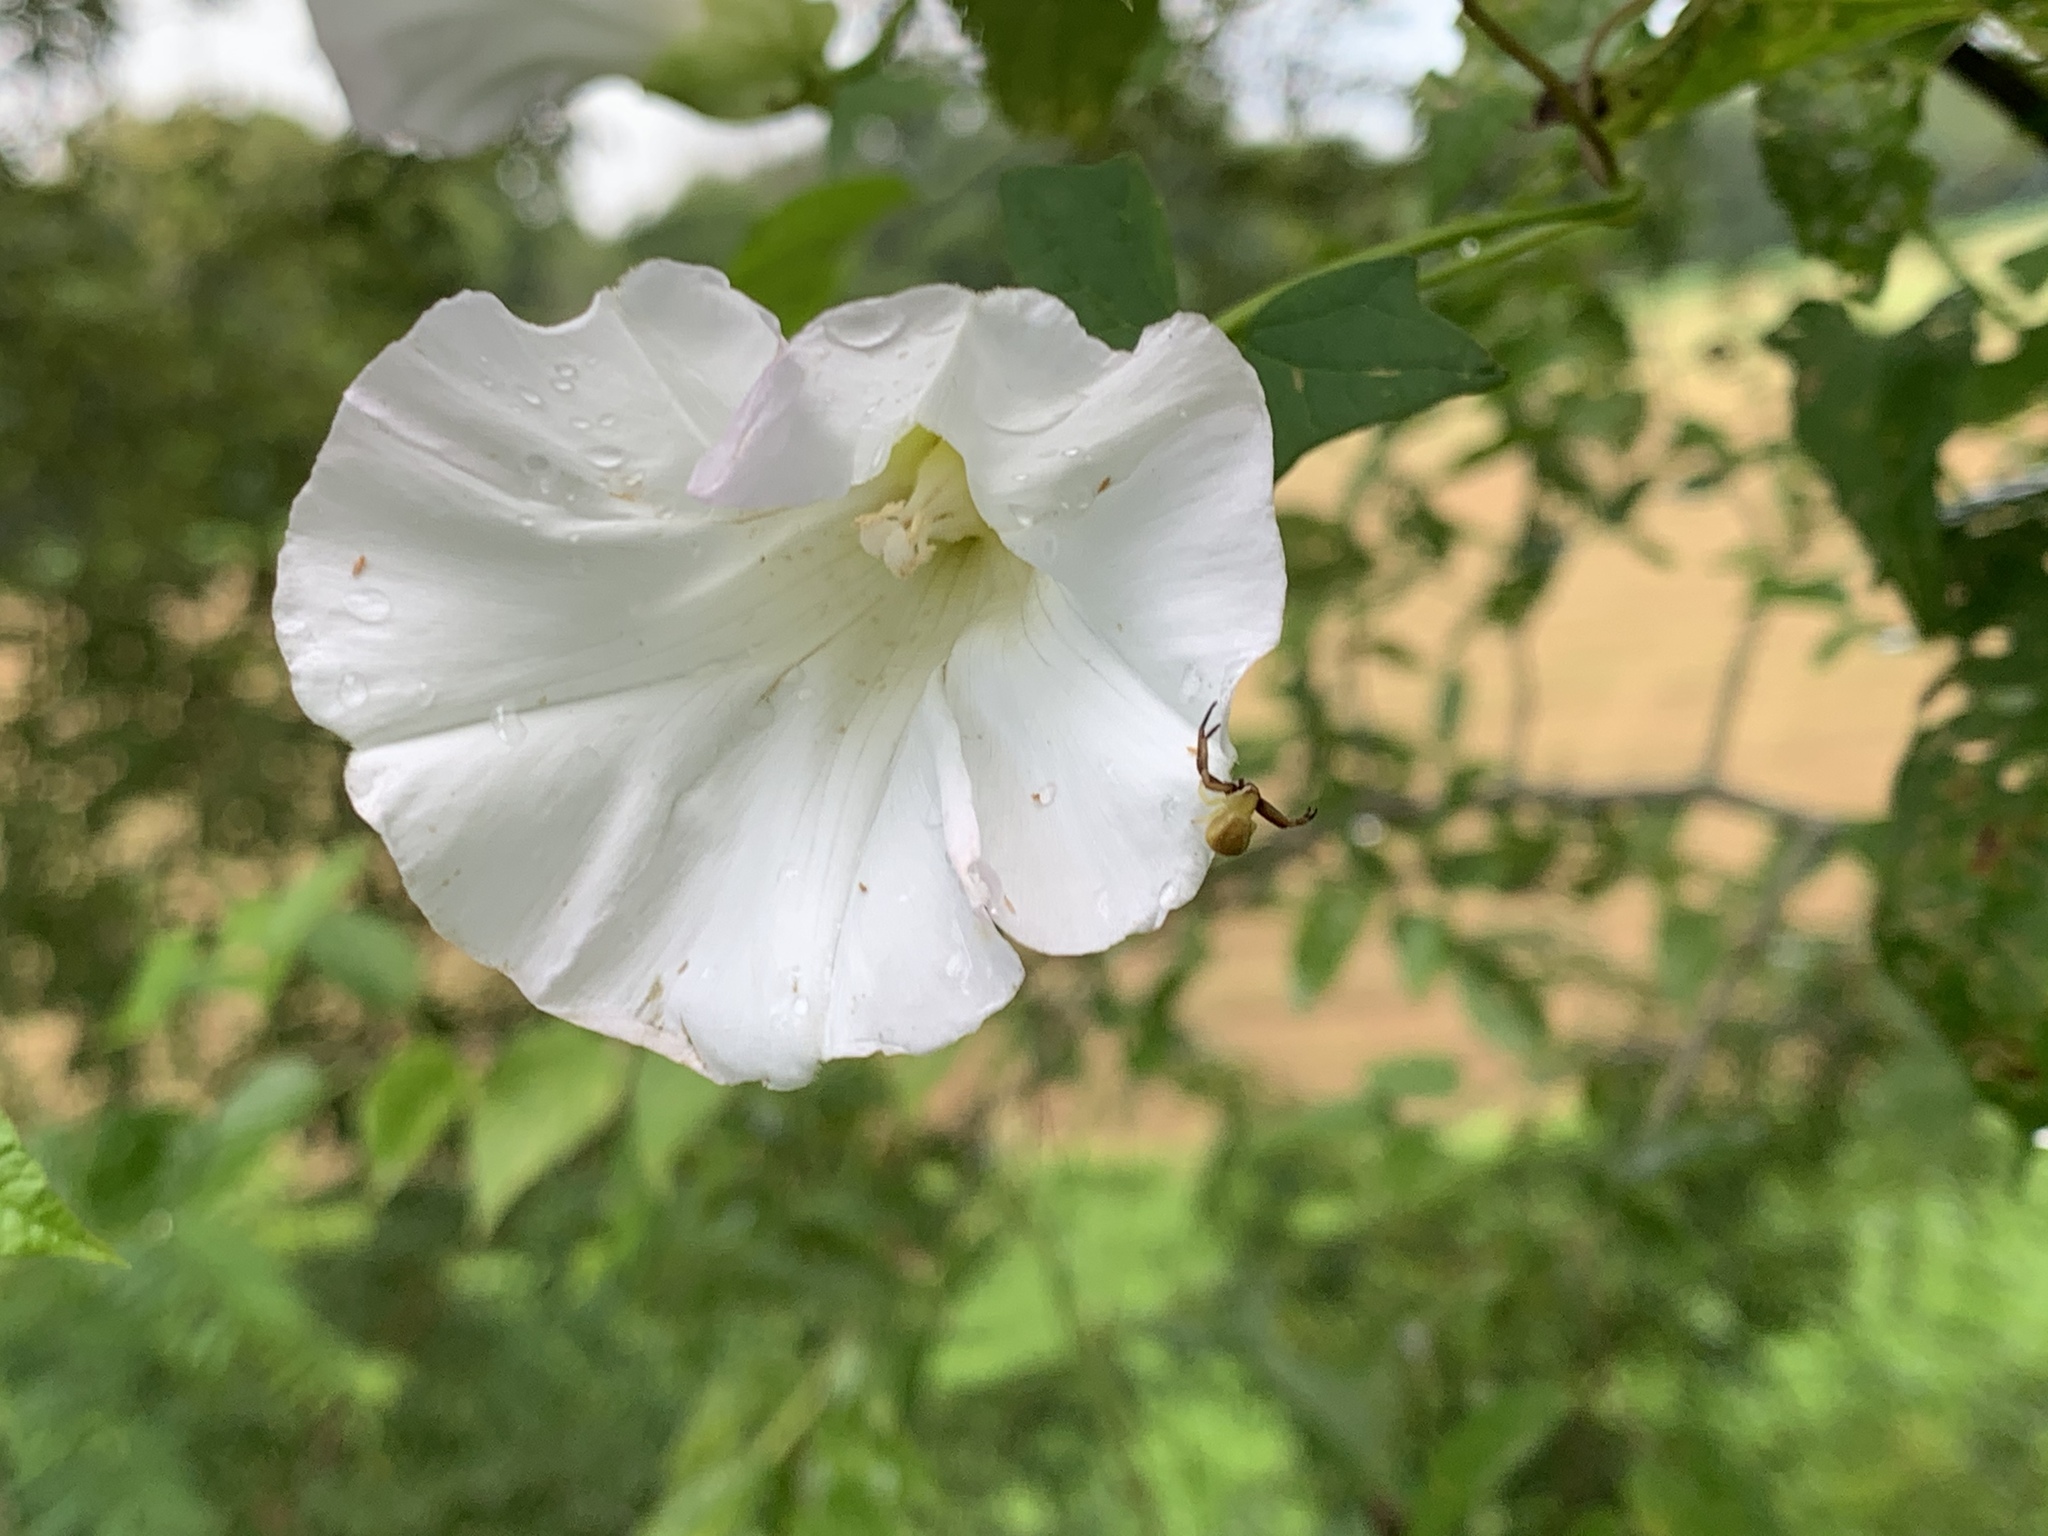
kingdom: Plantae
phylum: Tracheophyta
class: Magnoliopsida
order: Solanales
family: Convolvulaceae
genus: Calystegia
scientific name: Calystegia silvatica
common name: Large bindweed
